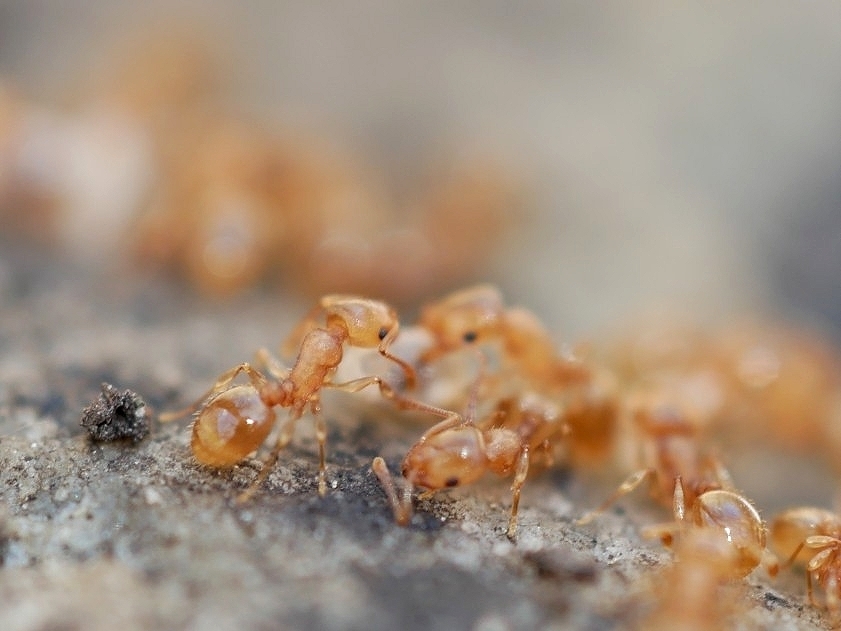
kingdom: Animalia
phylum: Arthropoda
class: Insecta
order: Hymenoptera
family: Formicidae
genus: Leptothorax
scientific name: Leptothorax nitens
